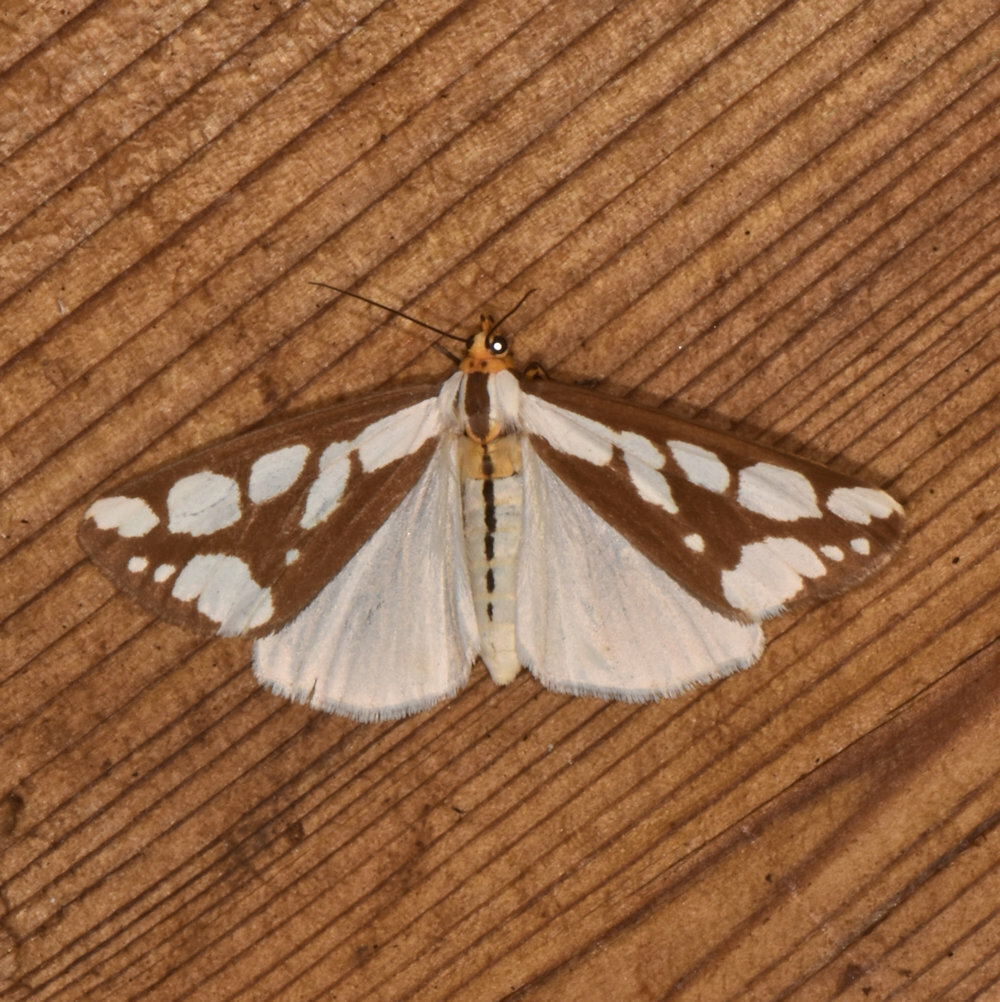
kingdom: Animalia
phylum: Arthropoda
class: Insecta
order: Lepidoptera
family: Erebidae
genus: Haploa
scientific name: Haploa confusa
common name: Confused haploa moth
